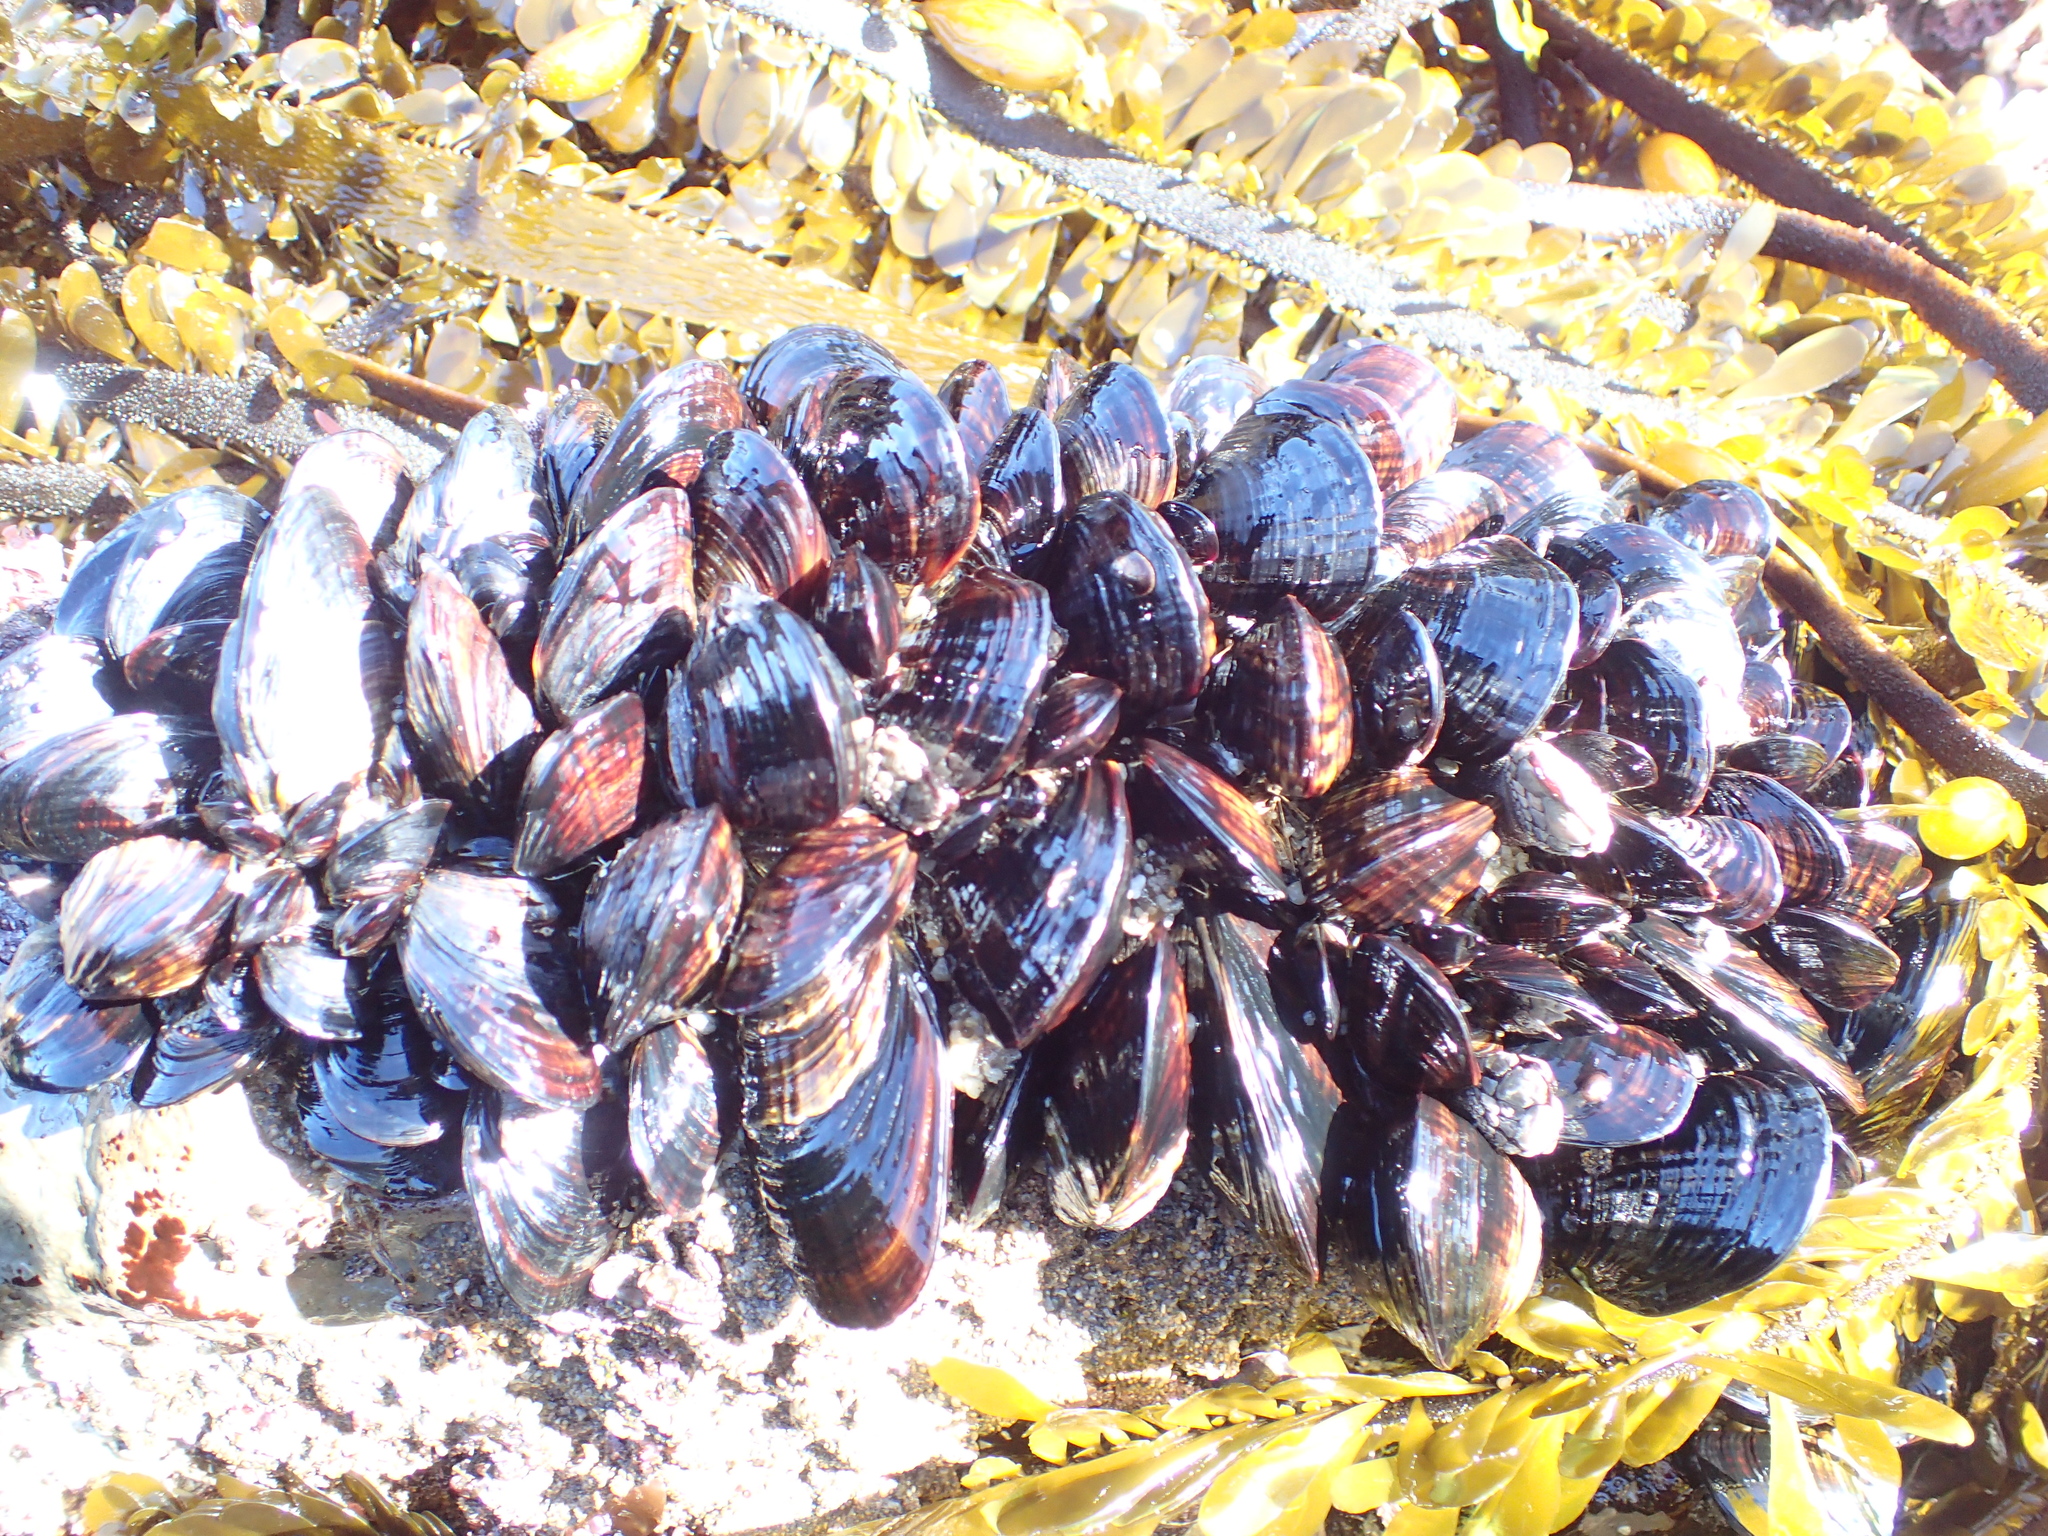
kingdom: Animalia
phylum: Mollusca
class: Bivalvia
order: Mytilida
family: Mytilidae
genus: Mytilus
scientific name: Mytilus californianus
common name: California mussel
